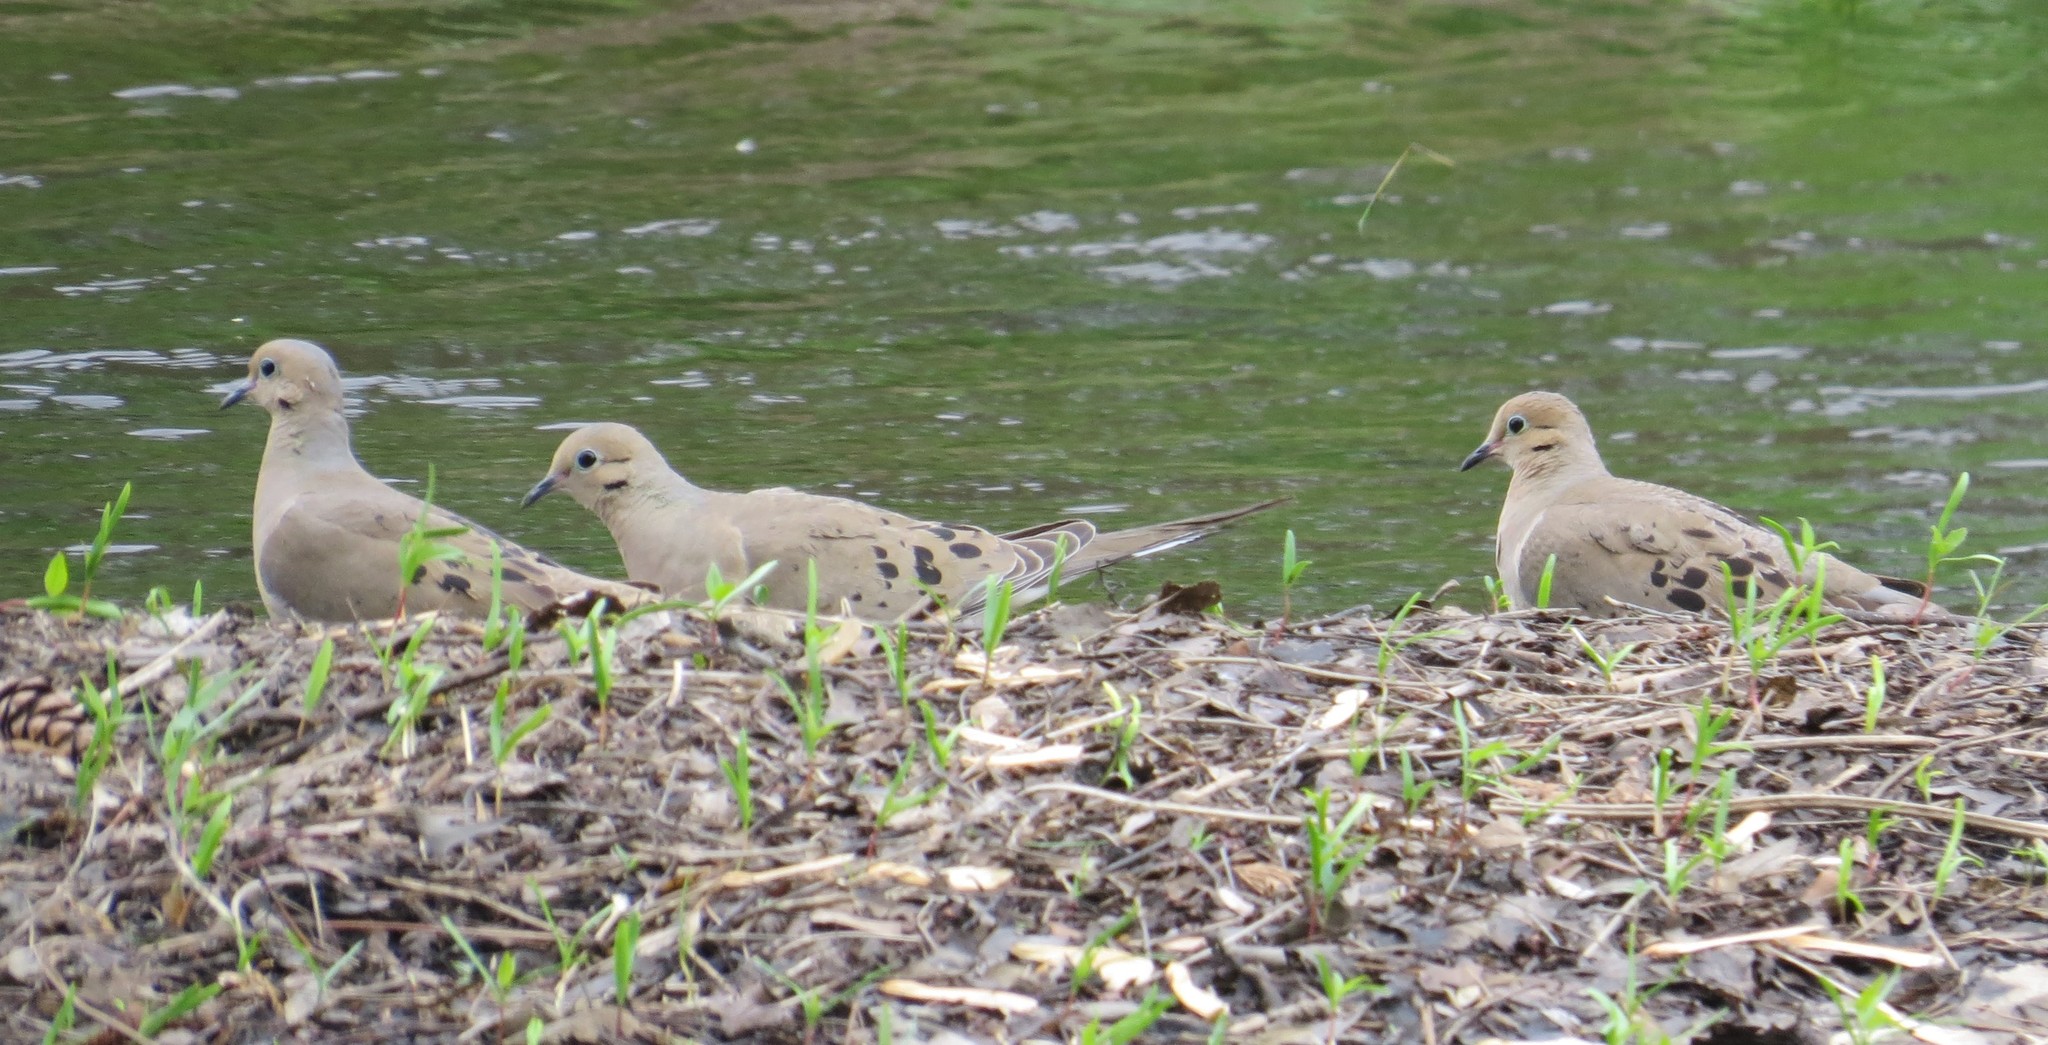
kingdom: Animalia
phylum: Chordata
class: Aves
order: Columbiformes
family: Columbidae
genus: Zenaida
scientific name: Zenaida macroura
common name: Mourning dove
